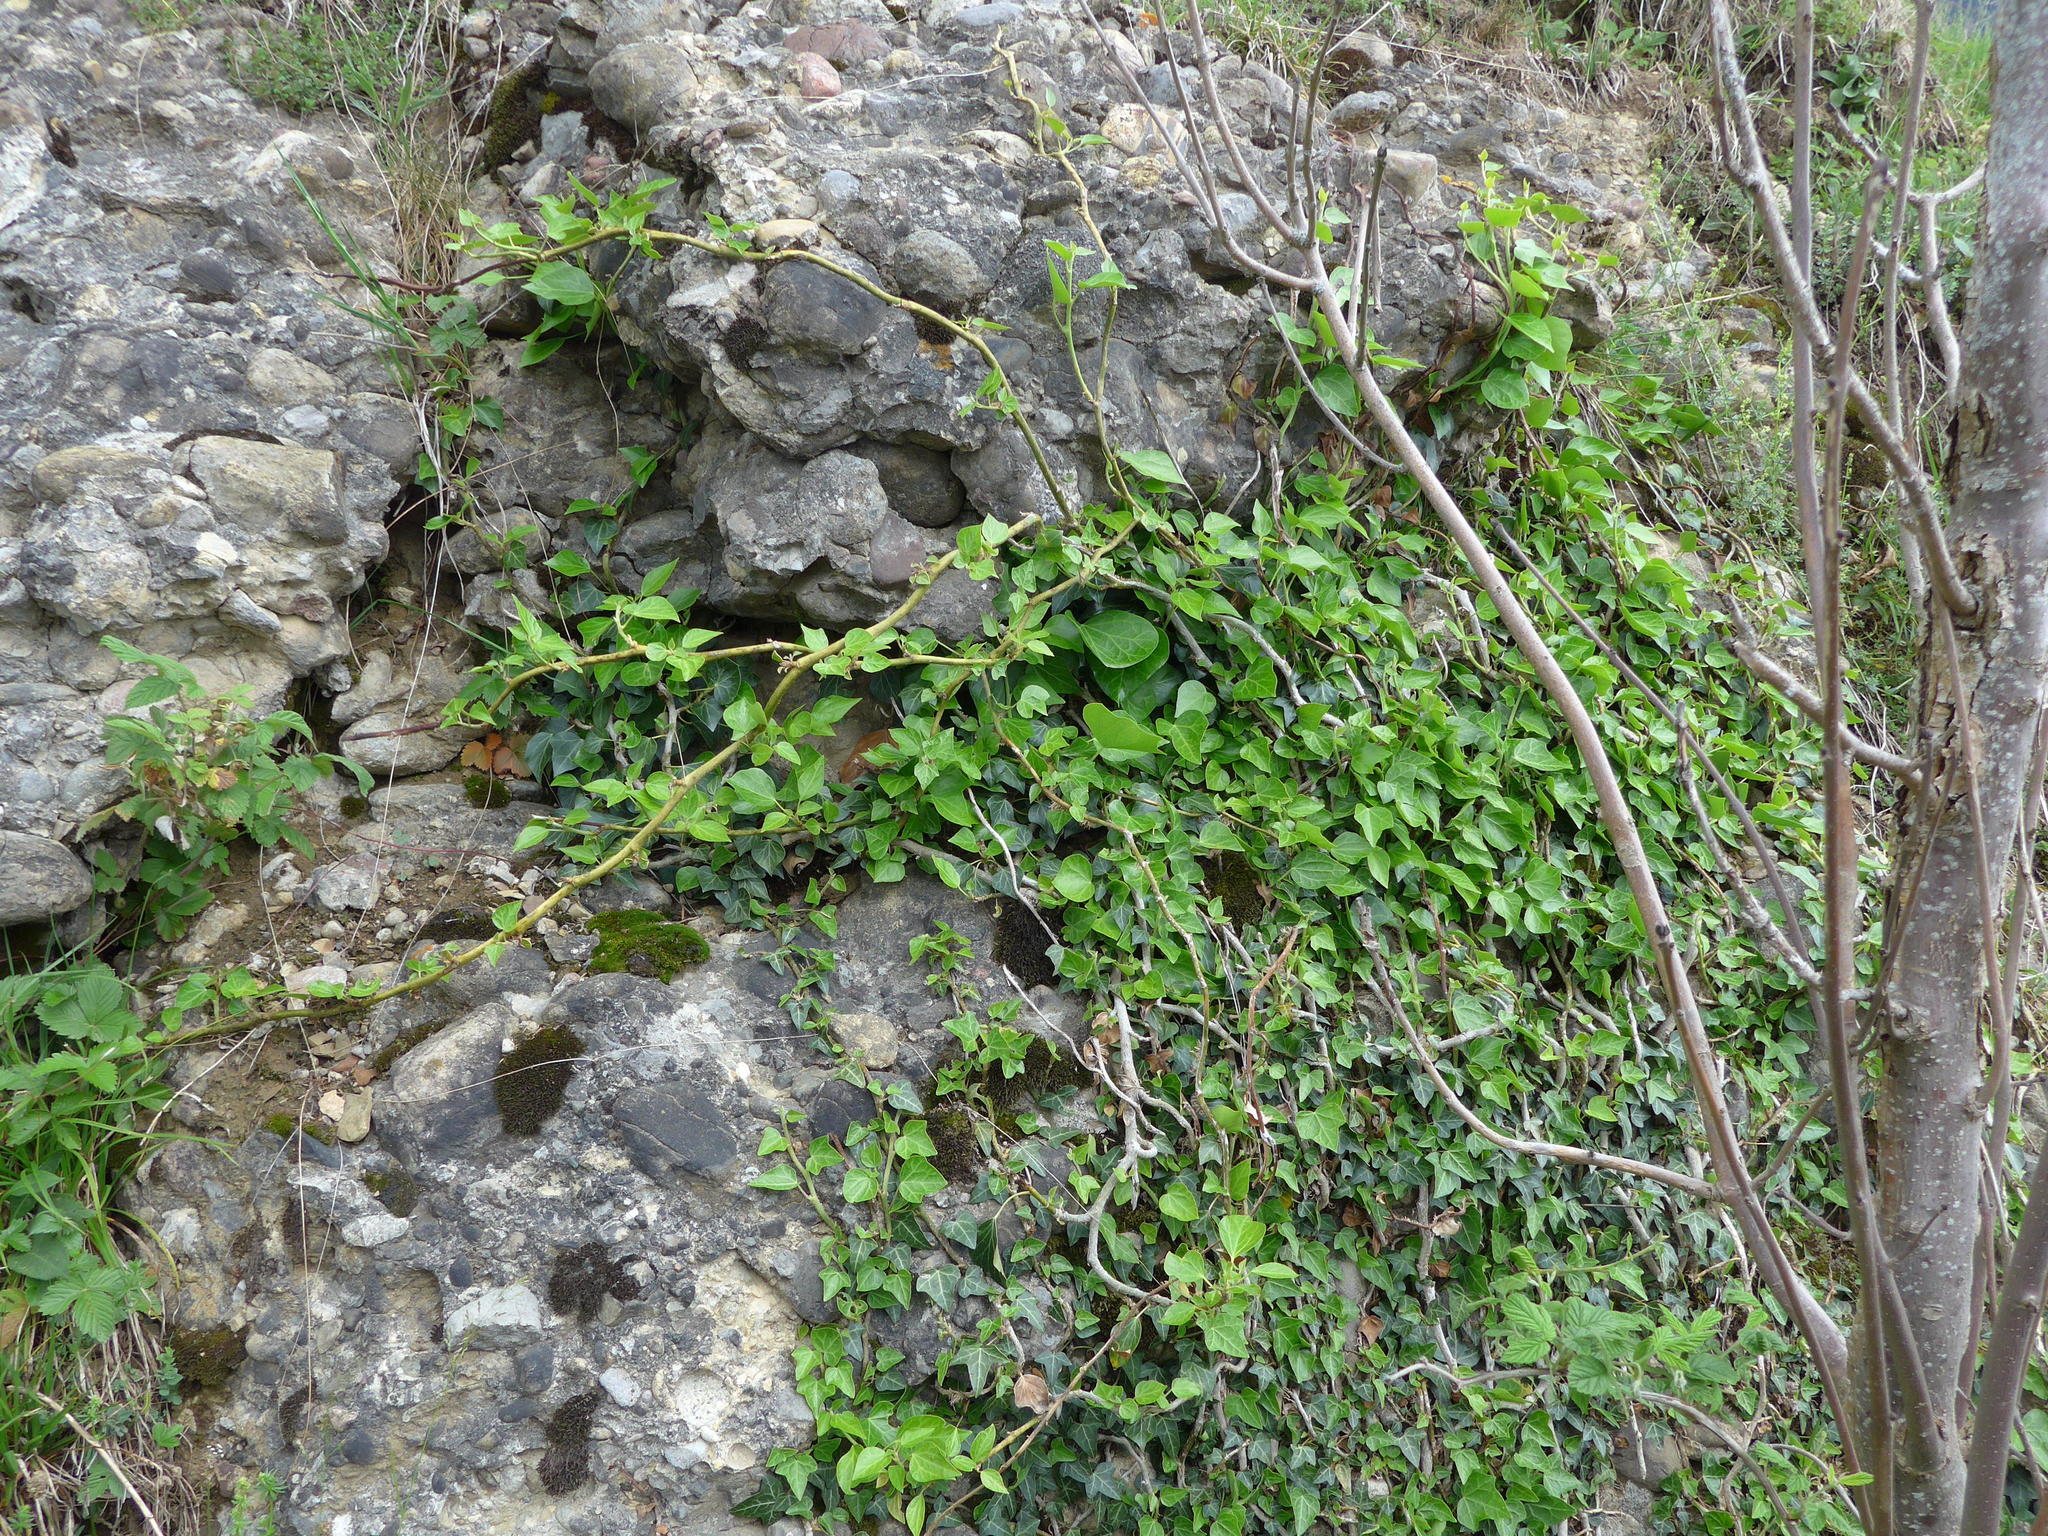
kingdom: Plantae
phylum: Tracheophyta
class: Magnoliopsida
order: Apiales
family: Araliaceae
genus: Hedera
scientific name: Hedera helix
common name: Ivy
